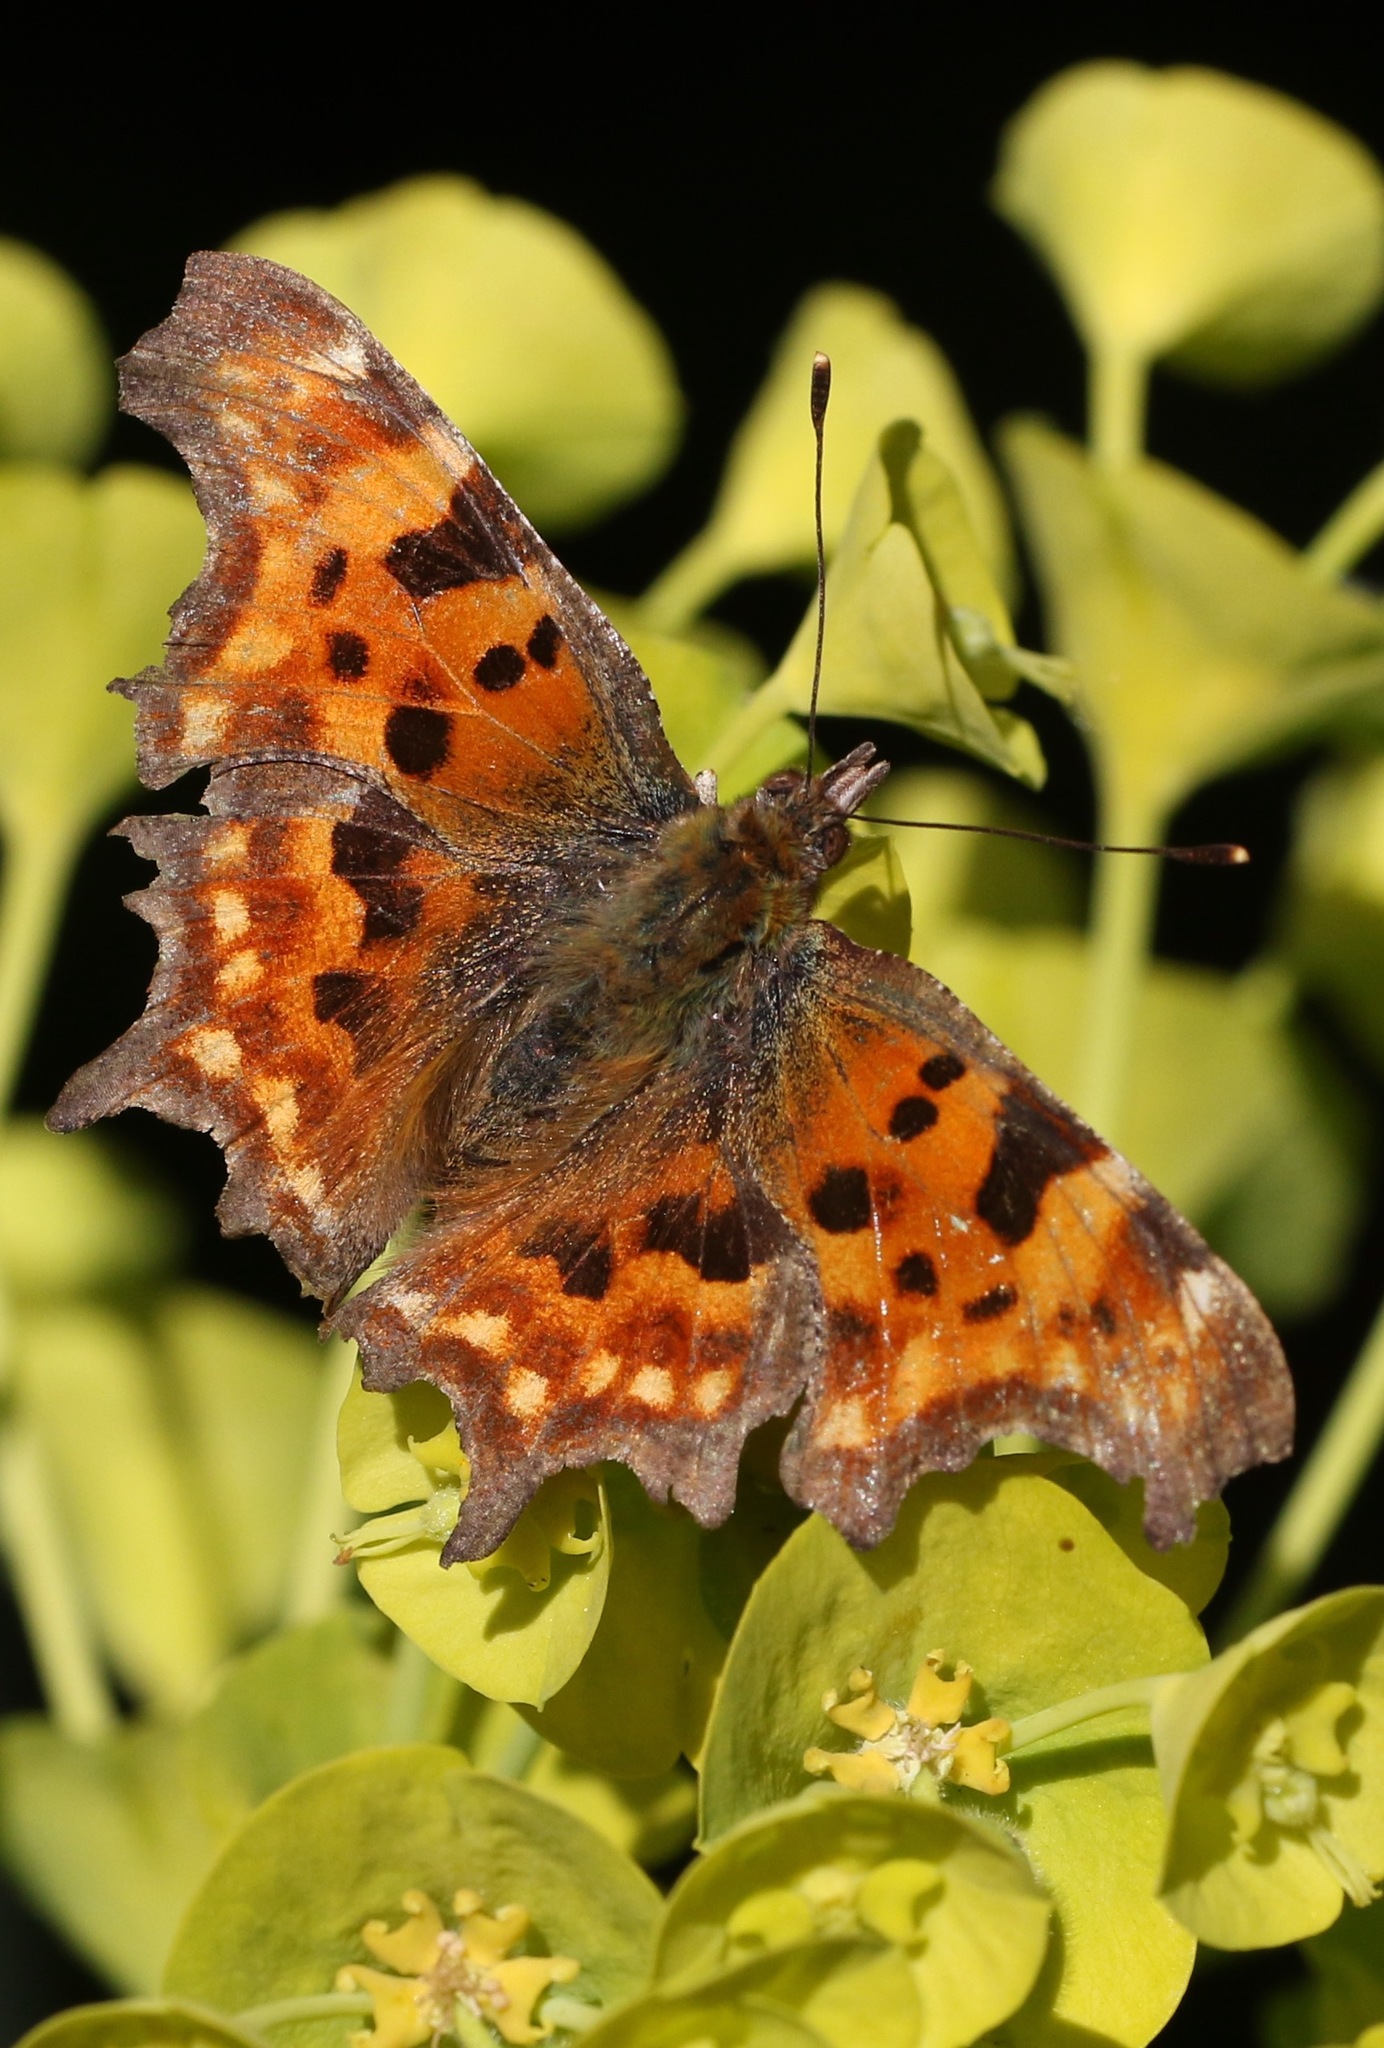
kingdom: Animalia
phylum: Arthropoda
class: Insecta
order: Lepidoptera
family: Nymphalidae
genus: Polygonia
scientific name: Polygonia c-album
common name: Comma
